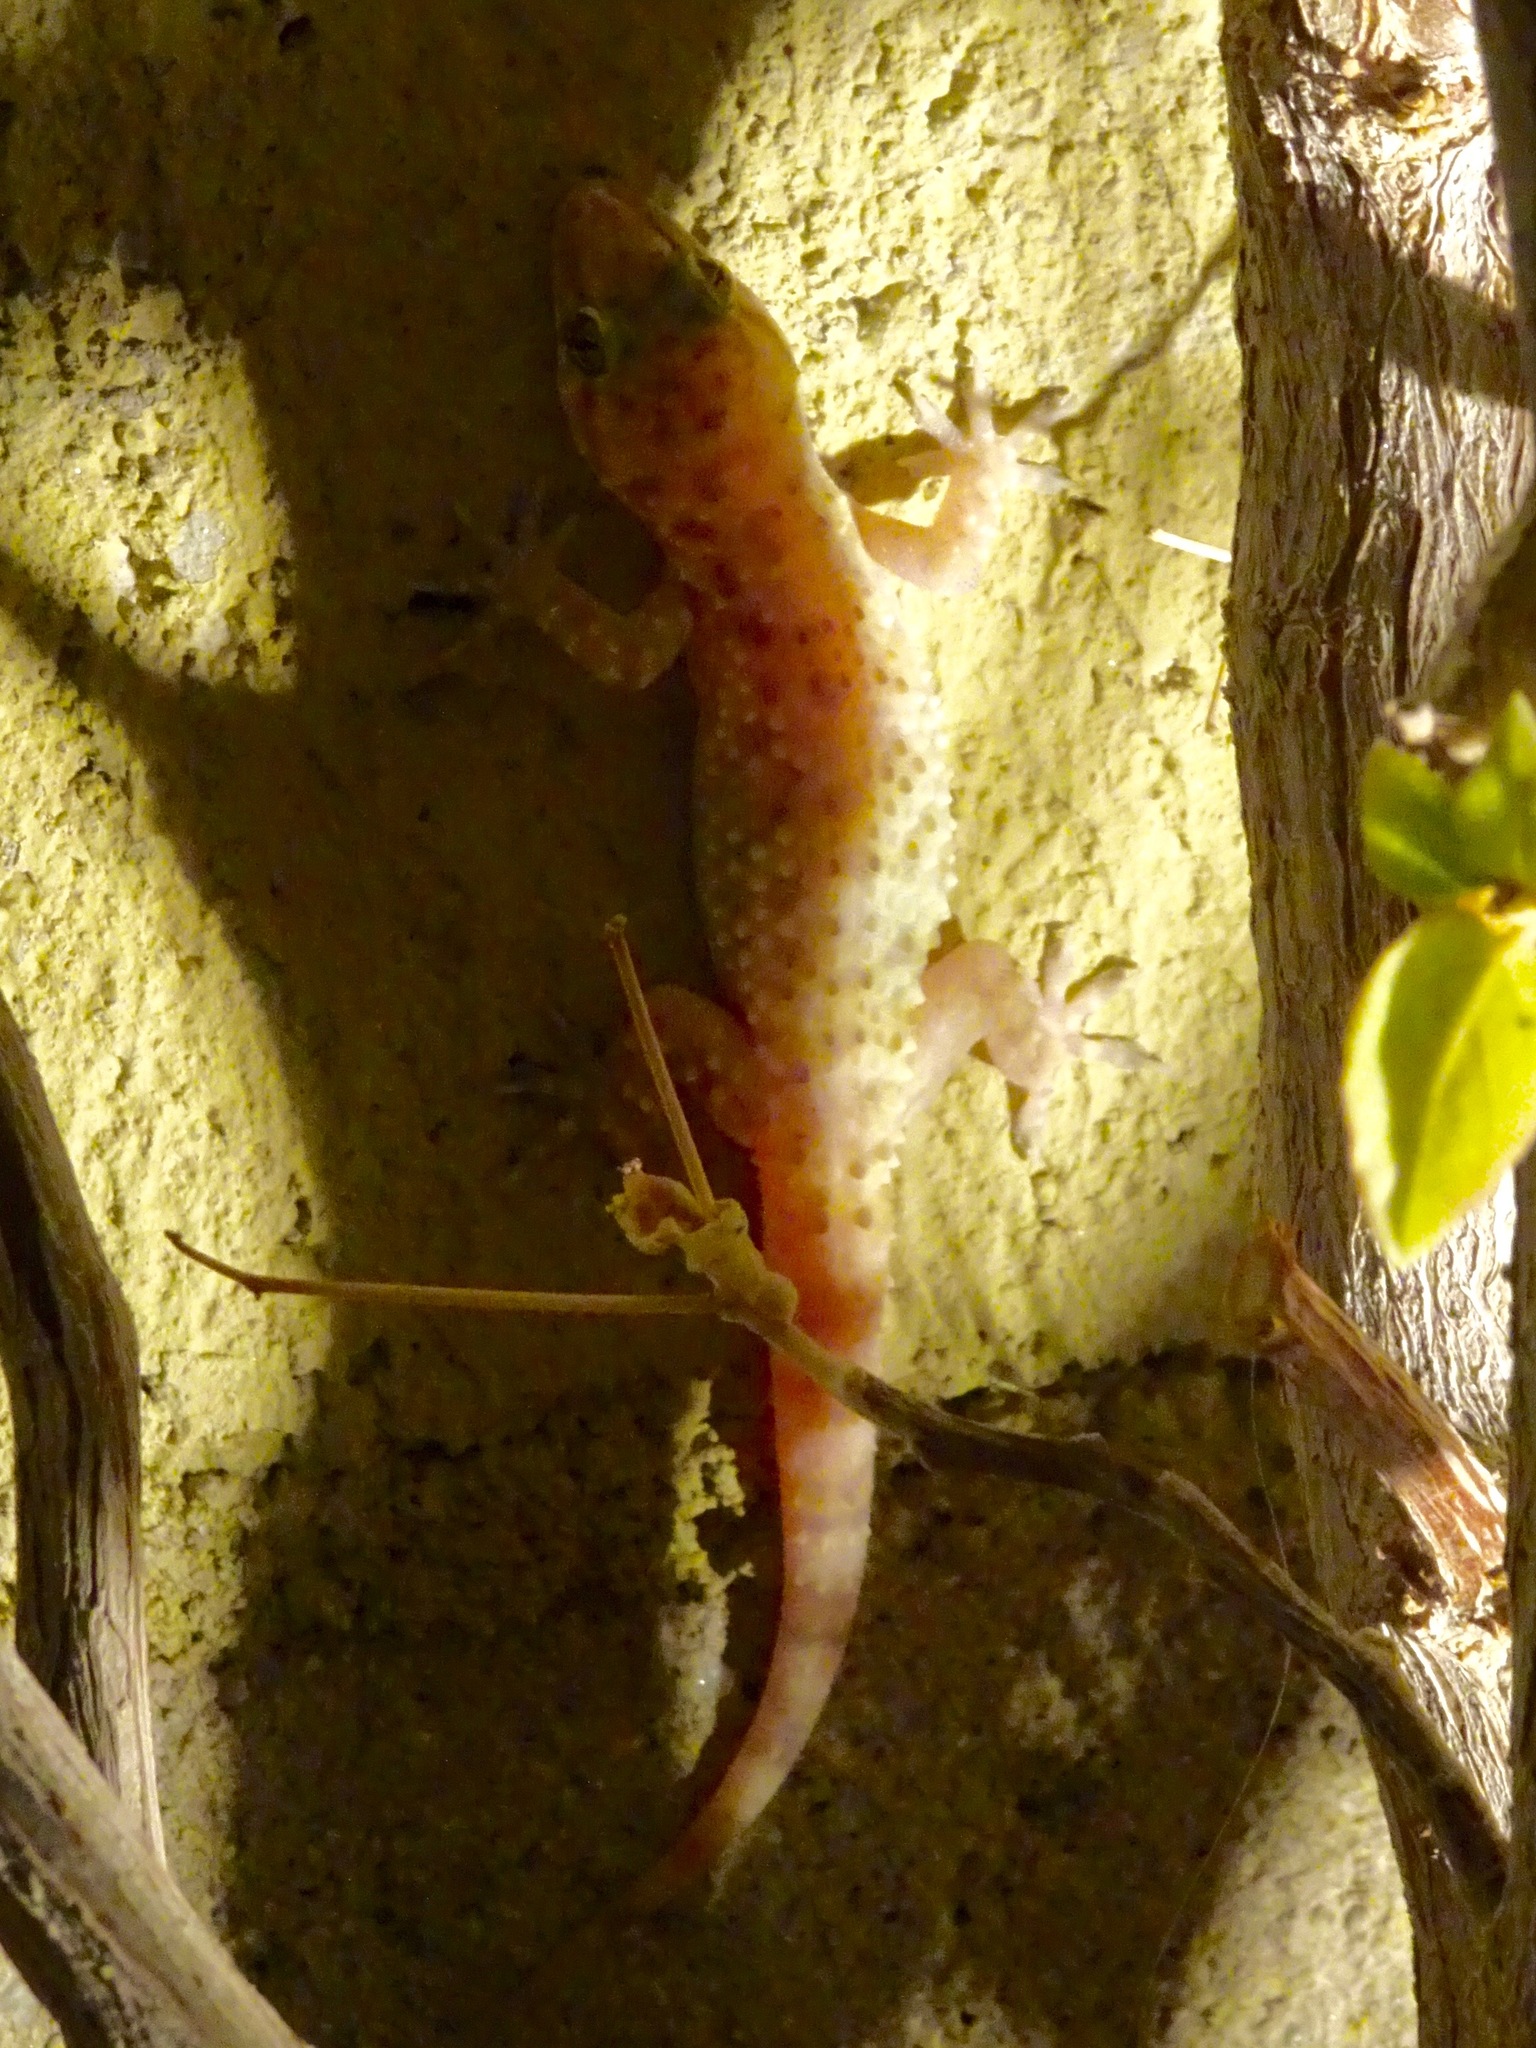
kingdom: Animalia
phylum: Chordata
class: Squamata
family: Gekkonidae
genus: Hemidactylus
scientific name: Hemidactylus turcicus
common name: Turkish gecko
